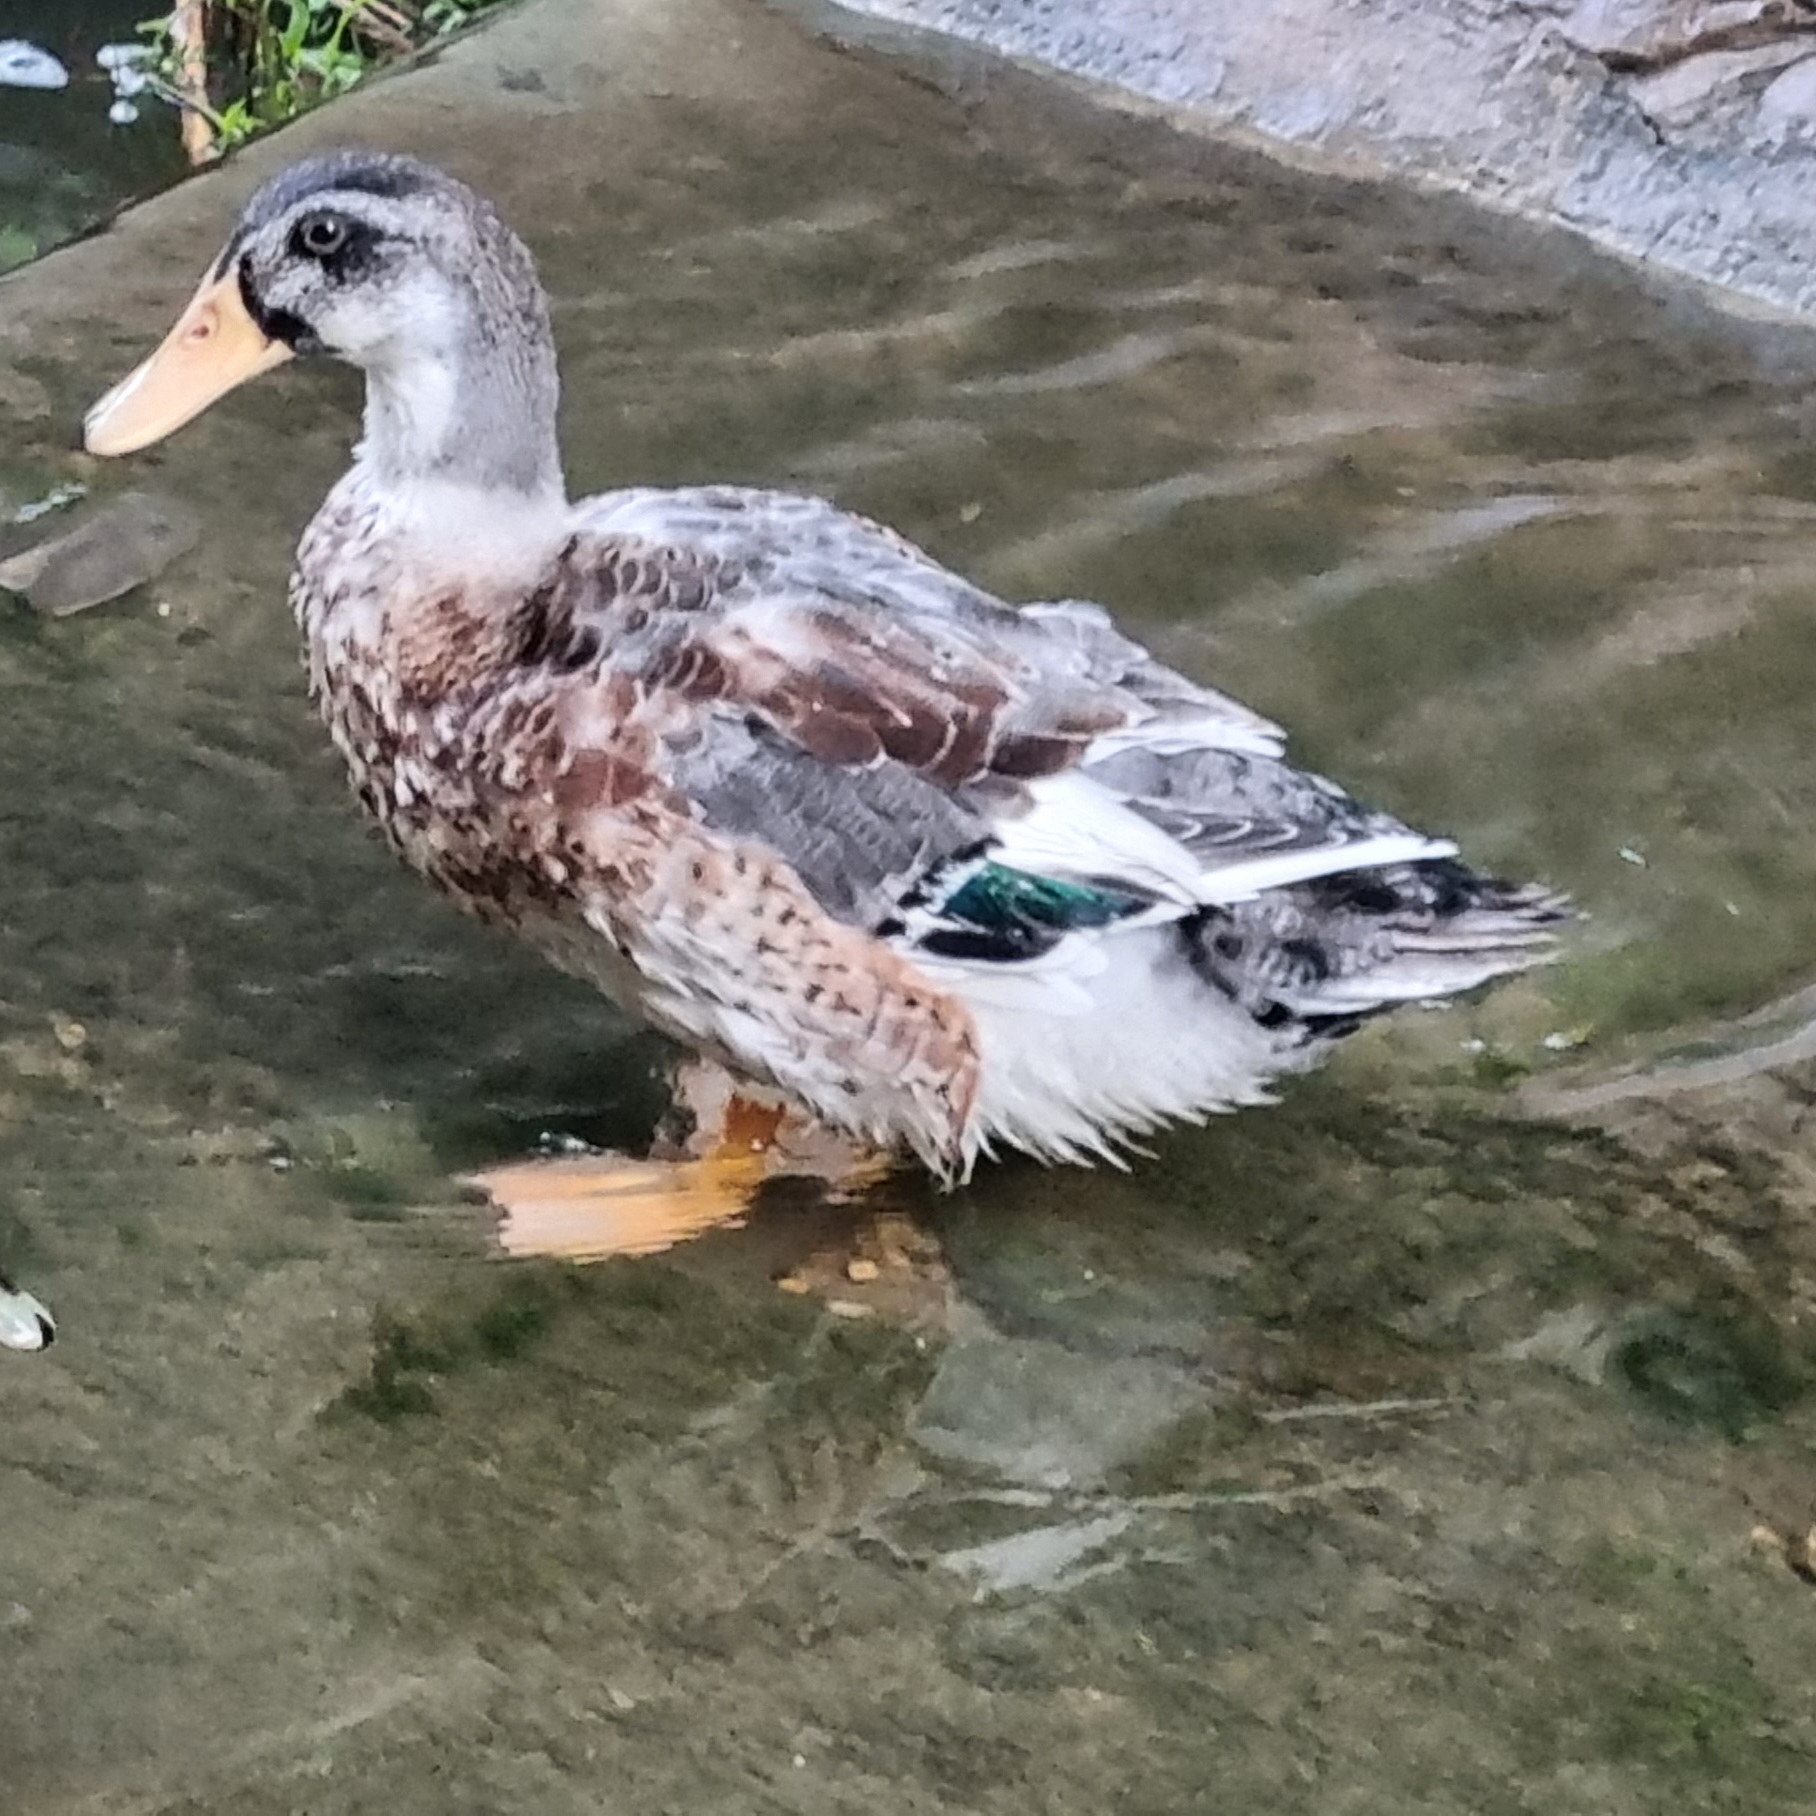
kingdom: Animalia
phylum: Chordata
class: Aves
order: Anseriformes
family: Anatidae
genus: Anas
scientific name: Anas platyrhynchos
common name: Mallard
